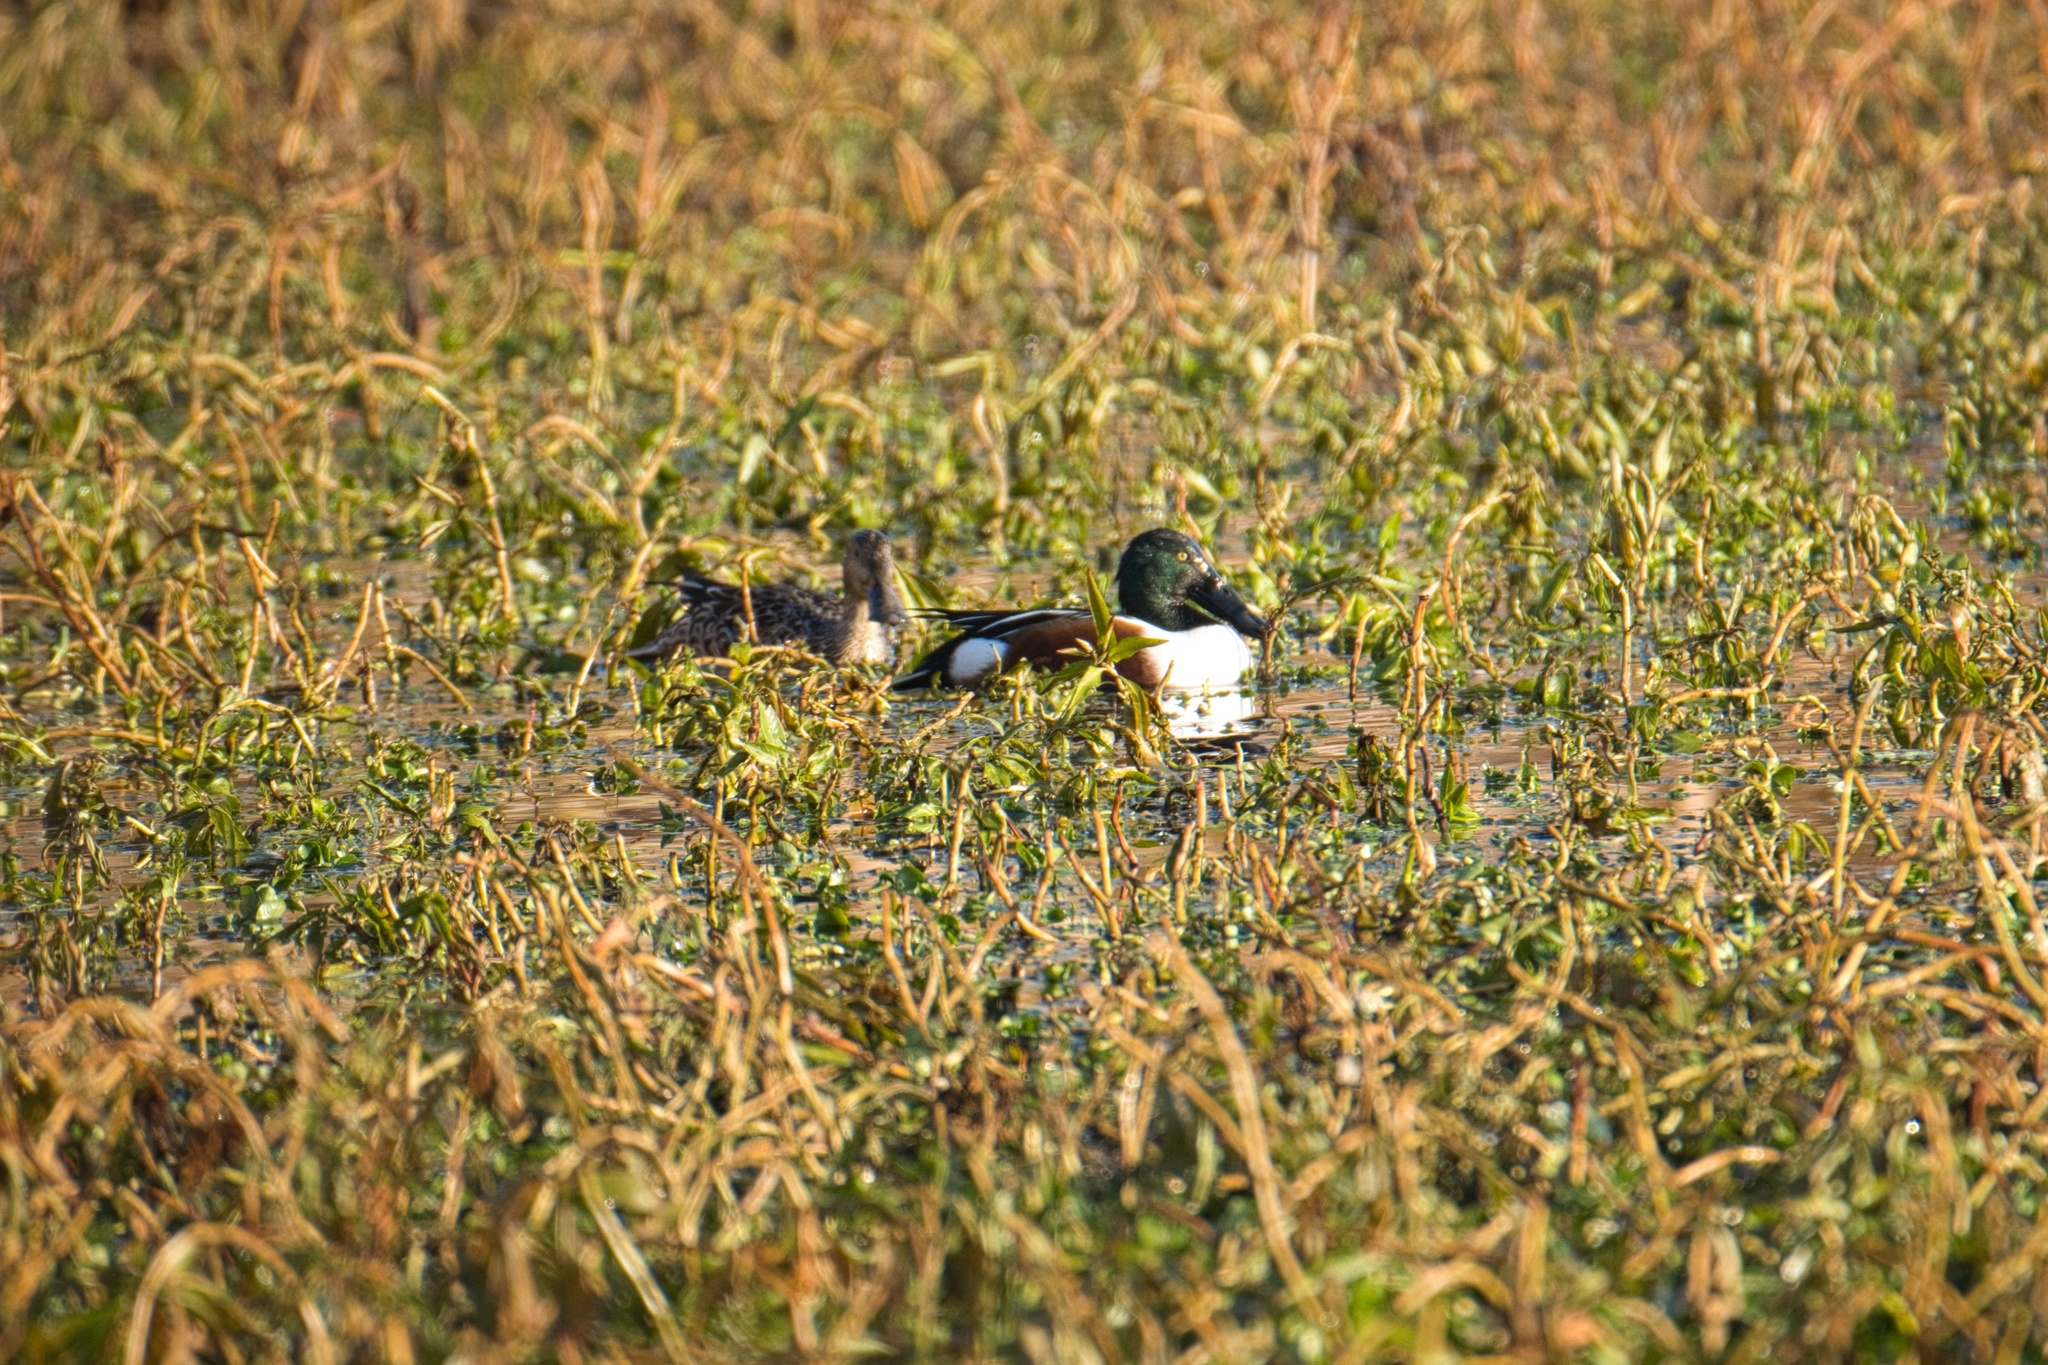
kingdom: Animalia
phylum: Chordata
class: Aves
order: Anseriformes
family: Anatidae
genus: Spatula
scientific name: Spatula clypeata
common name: Northern shoveler
